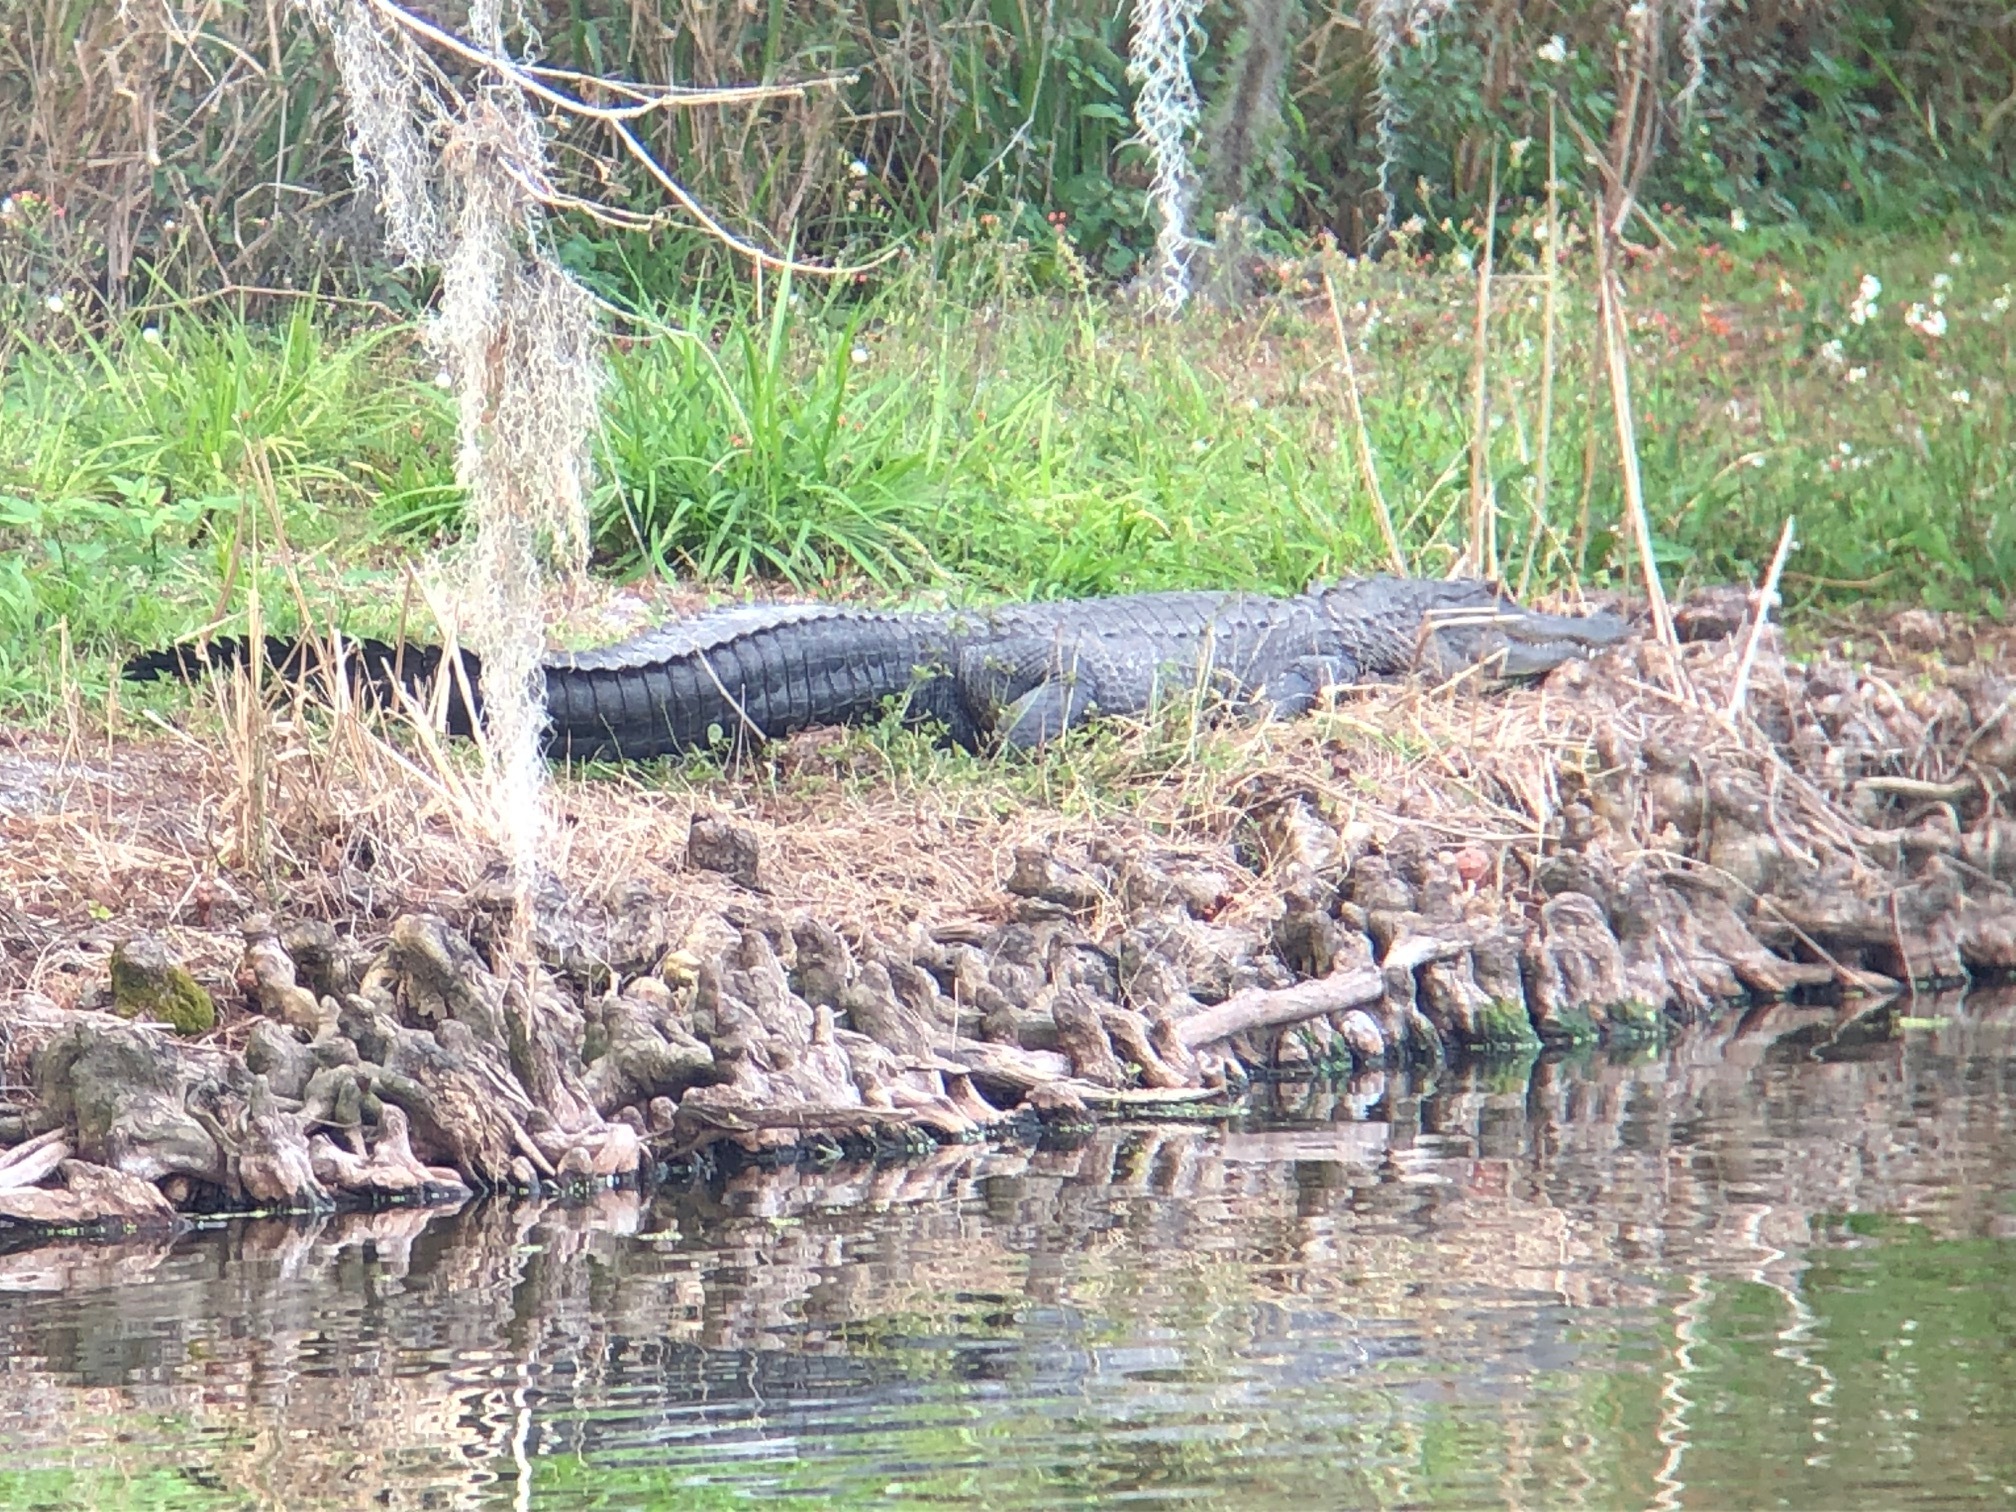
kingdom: Animalia
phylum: Chordata
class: Crocodylia
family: Alligatoridae
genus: Alligator
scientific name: Alligator mississippiensis
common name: American alligator
